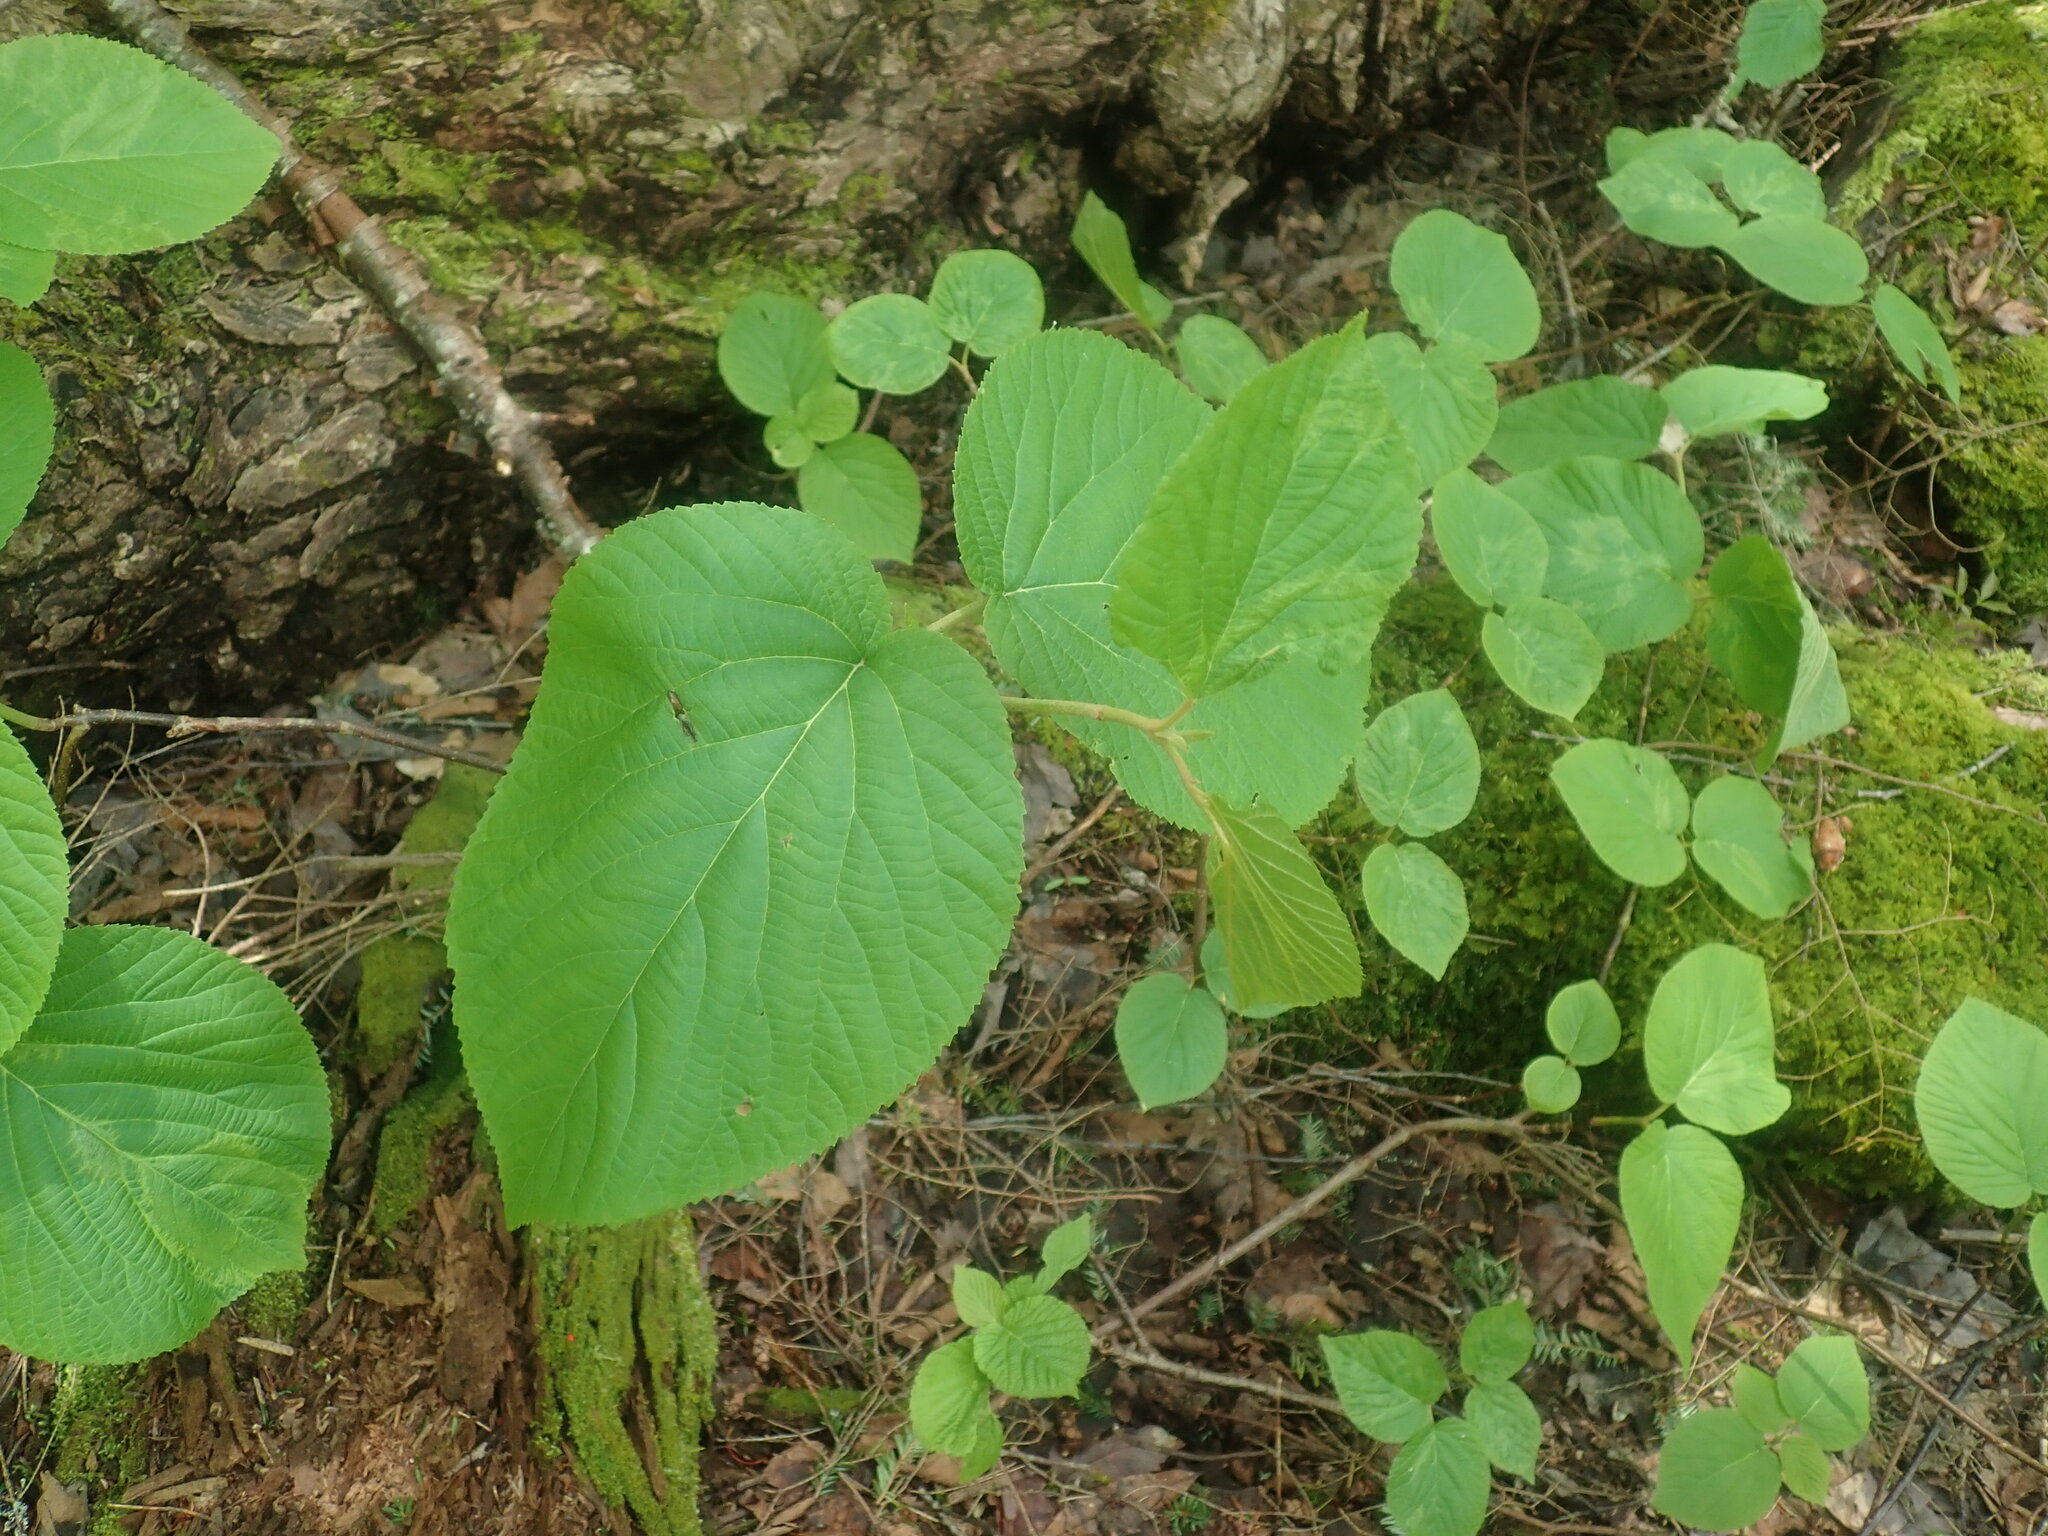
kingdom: Plantae
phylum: Tracheophyta
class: Magnoliopsida
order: Dipsacales
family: Viburnaceae
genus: Viburnum
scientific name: Viburnum lantanoides
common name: Hobblebush
